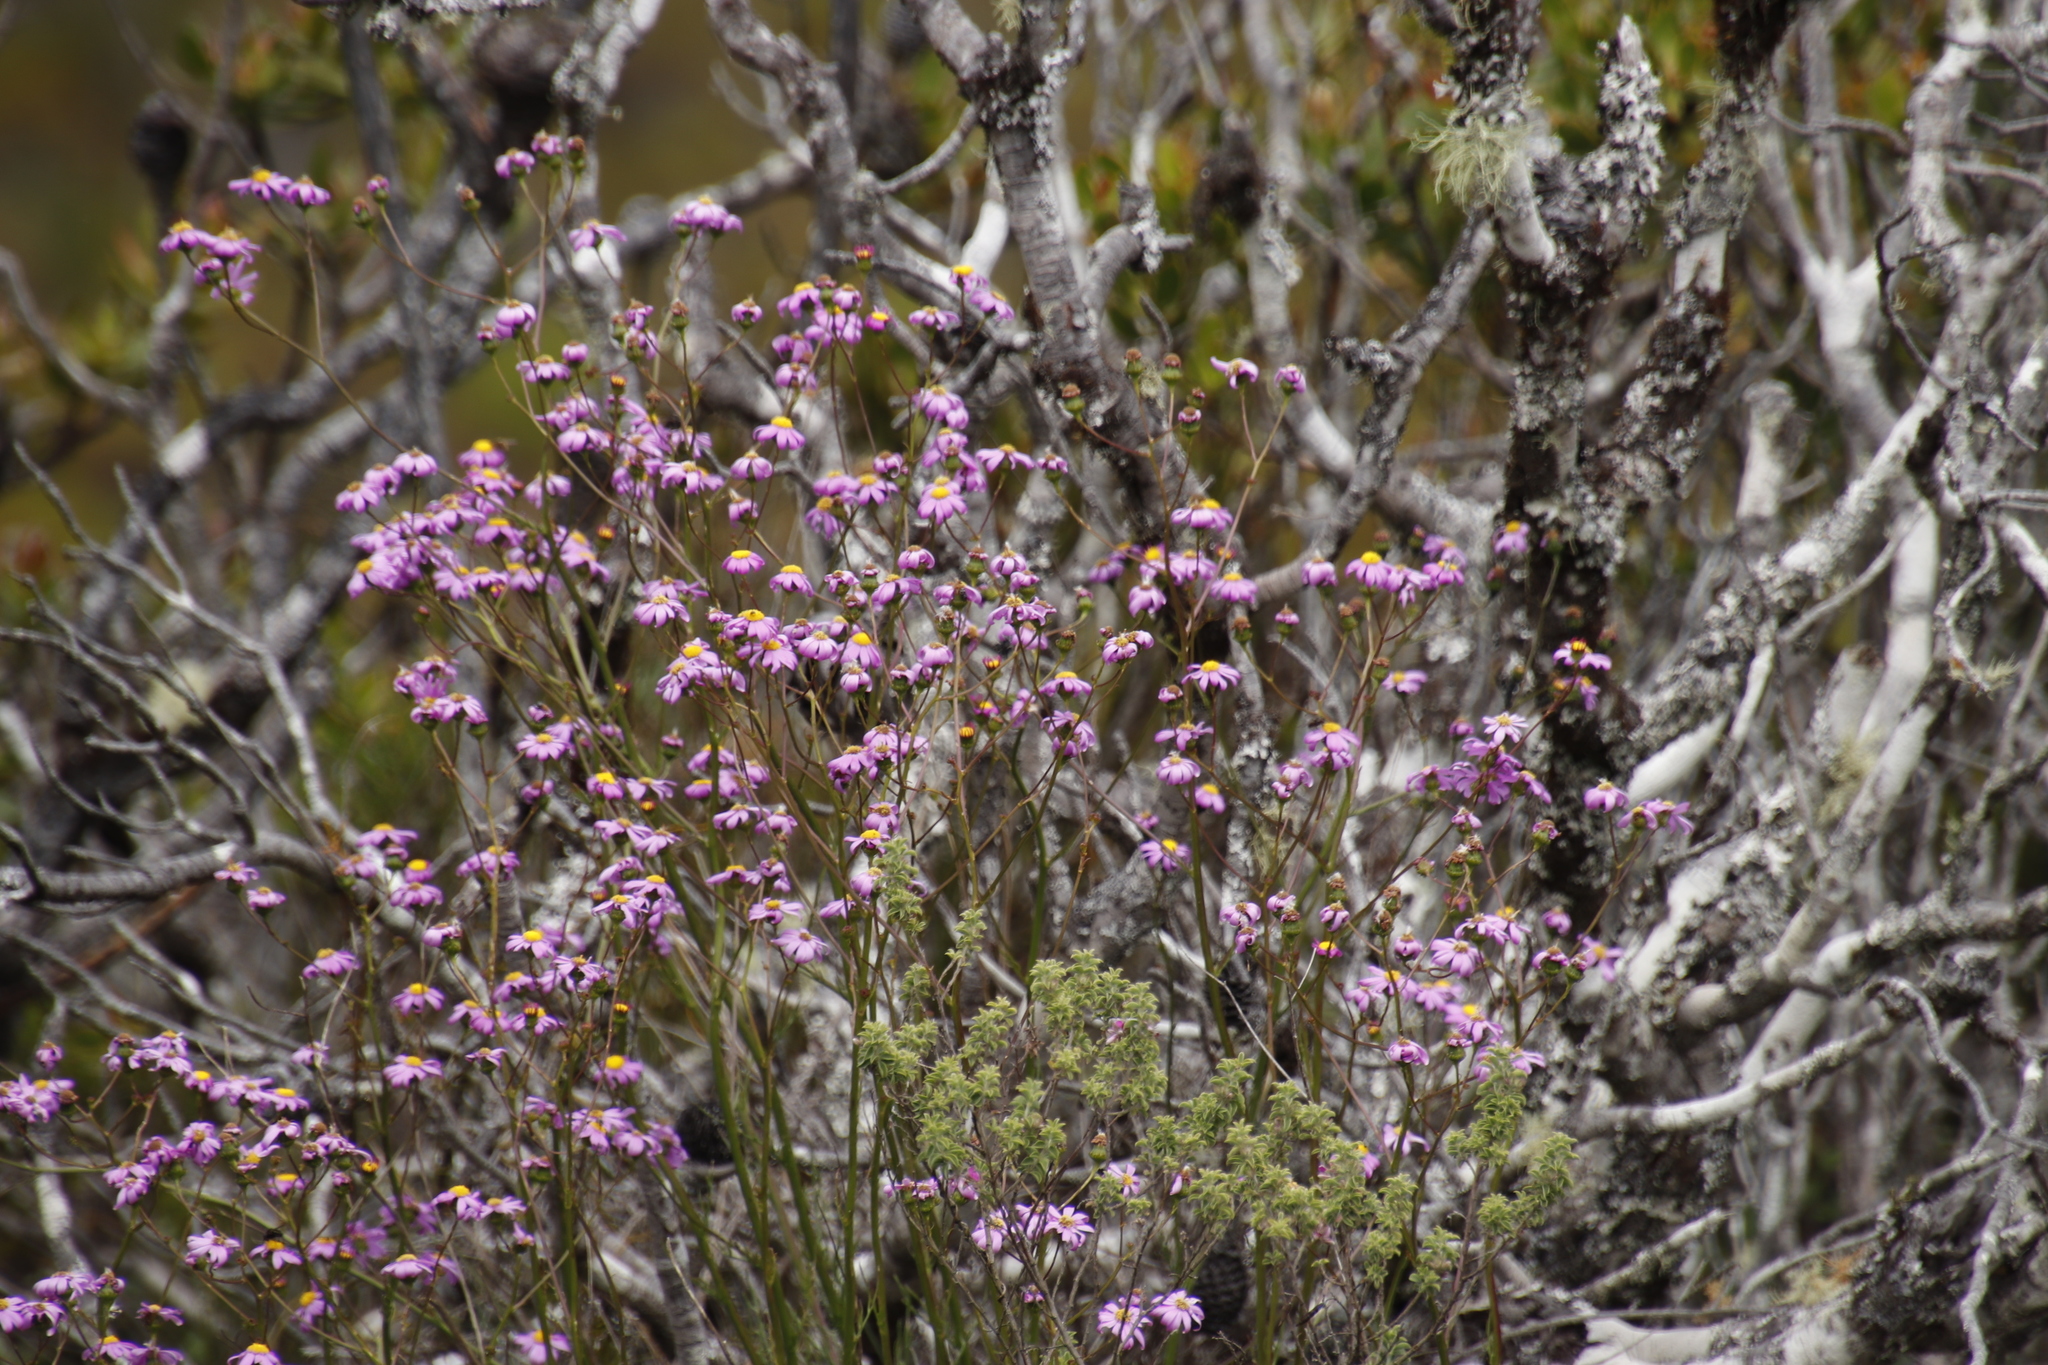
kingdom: Plantae
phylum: Tracheophyta
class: Magnoliopsida
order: Asterales
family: Asteraceae
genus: Senecio
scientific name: Senecio umbellatus
